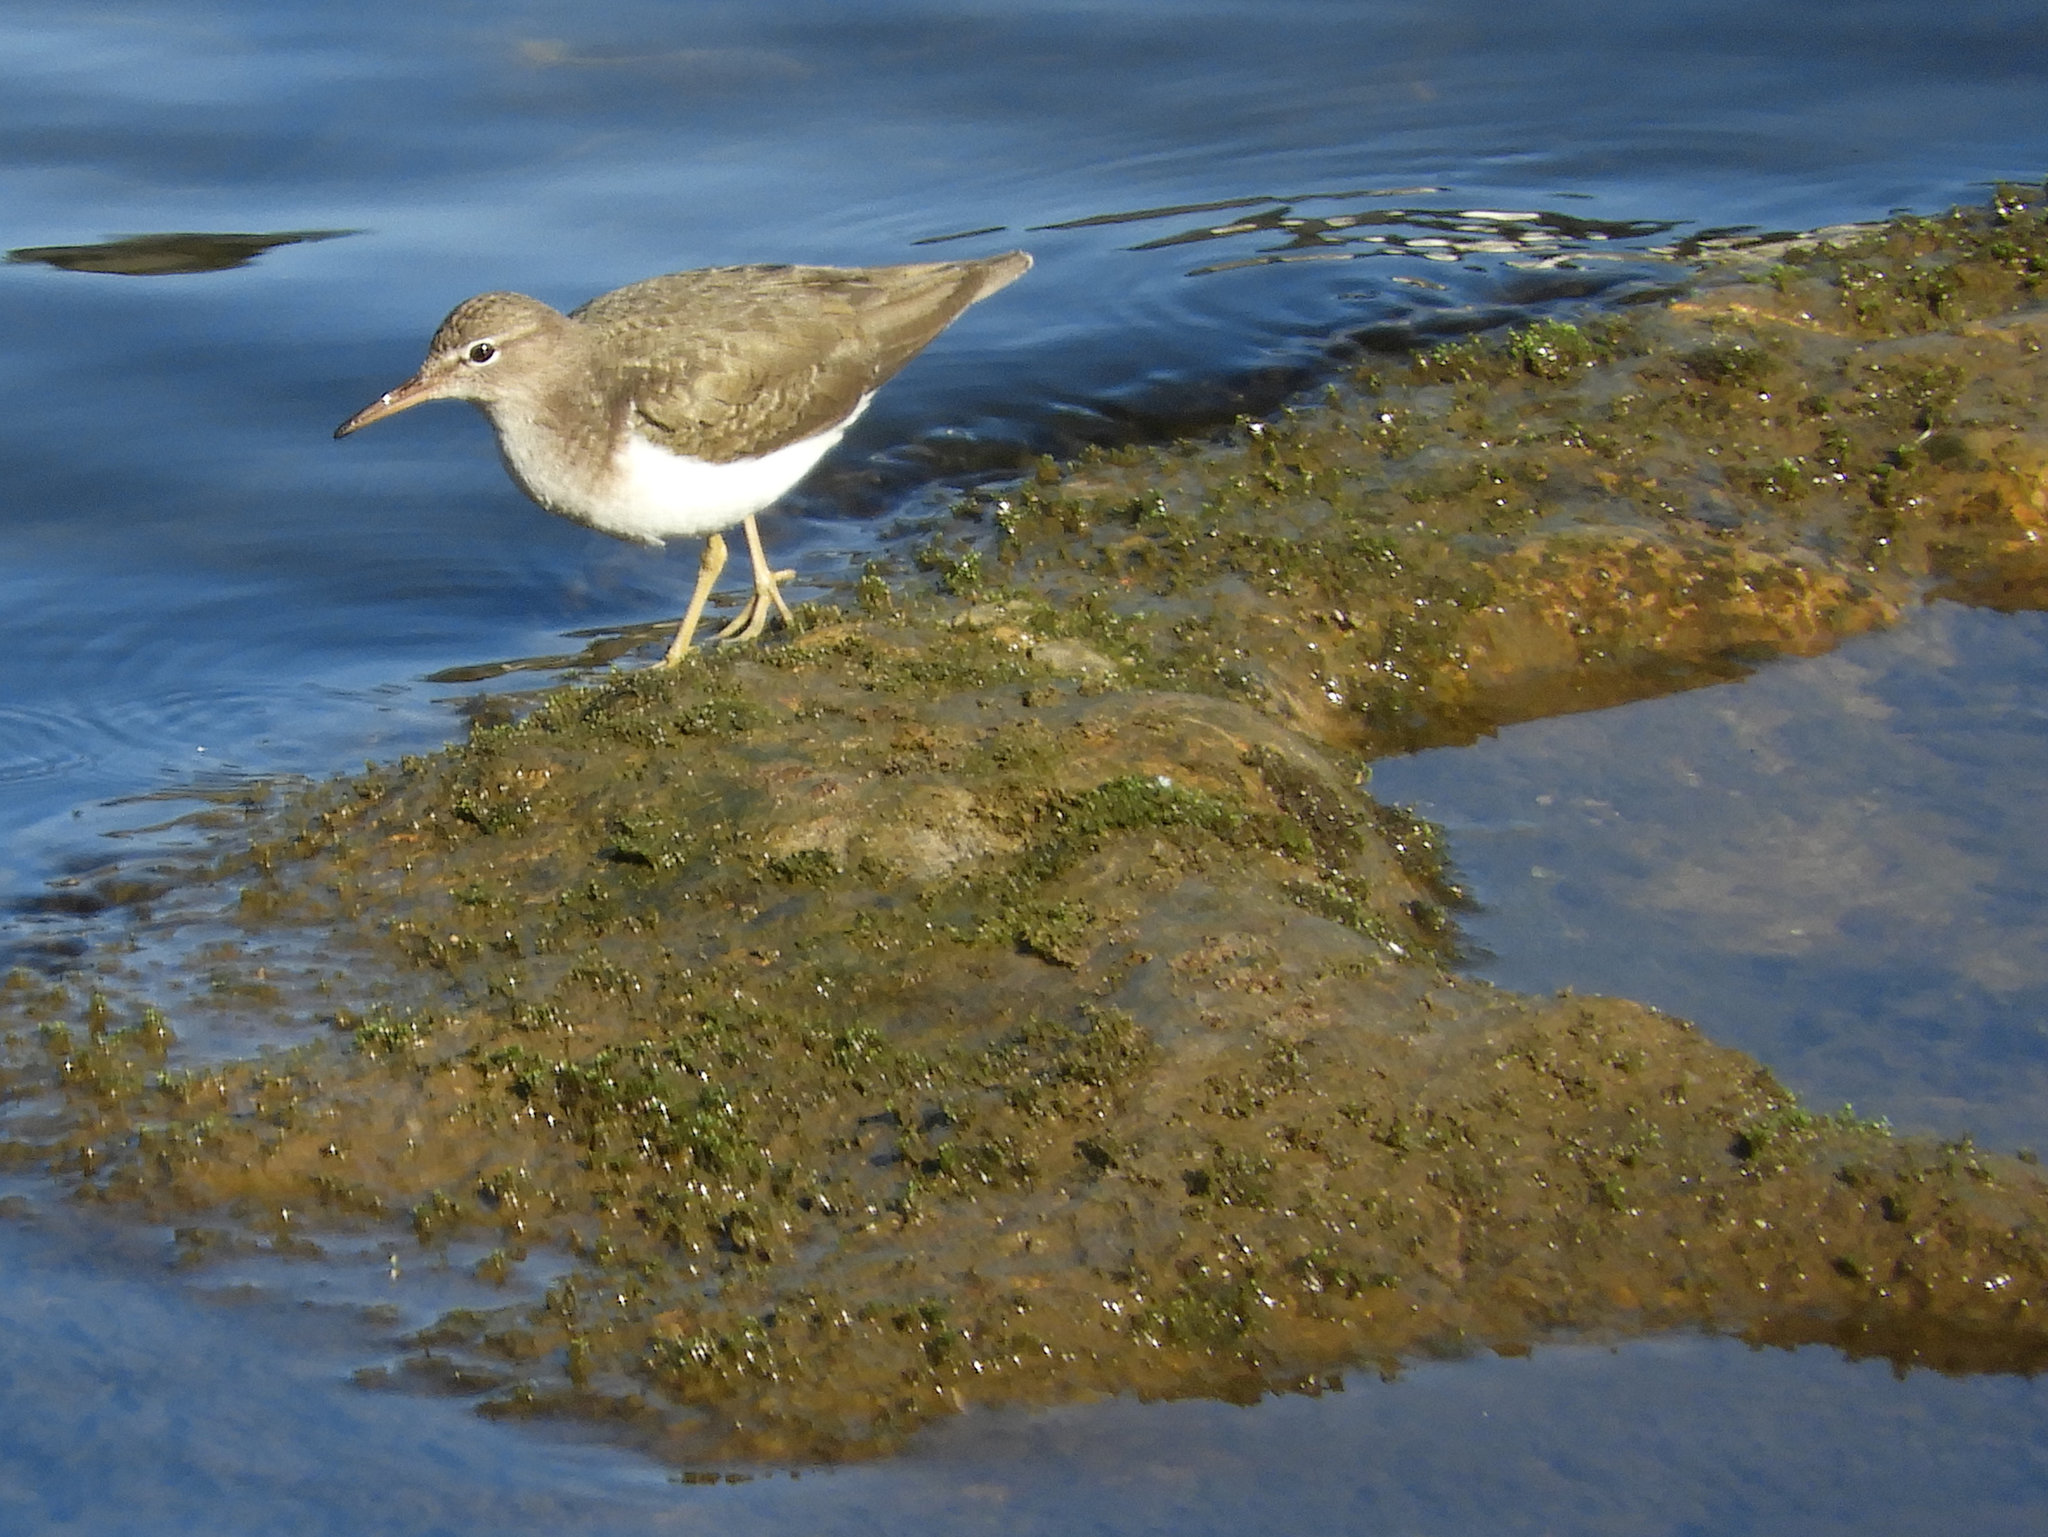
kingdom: Animalia
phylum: Chordata
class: Aves
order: Charadriiformes
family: Scolopacidae
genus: Actitis
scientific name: Actitis macularius
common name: Spotted sandpiper
